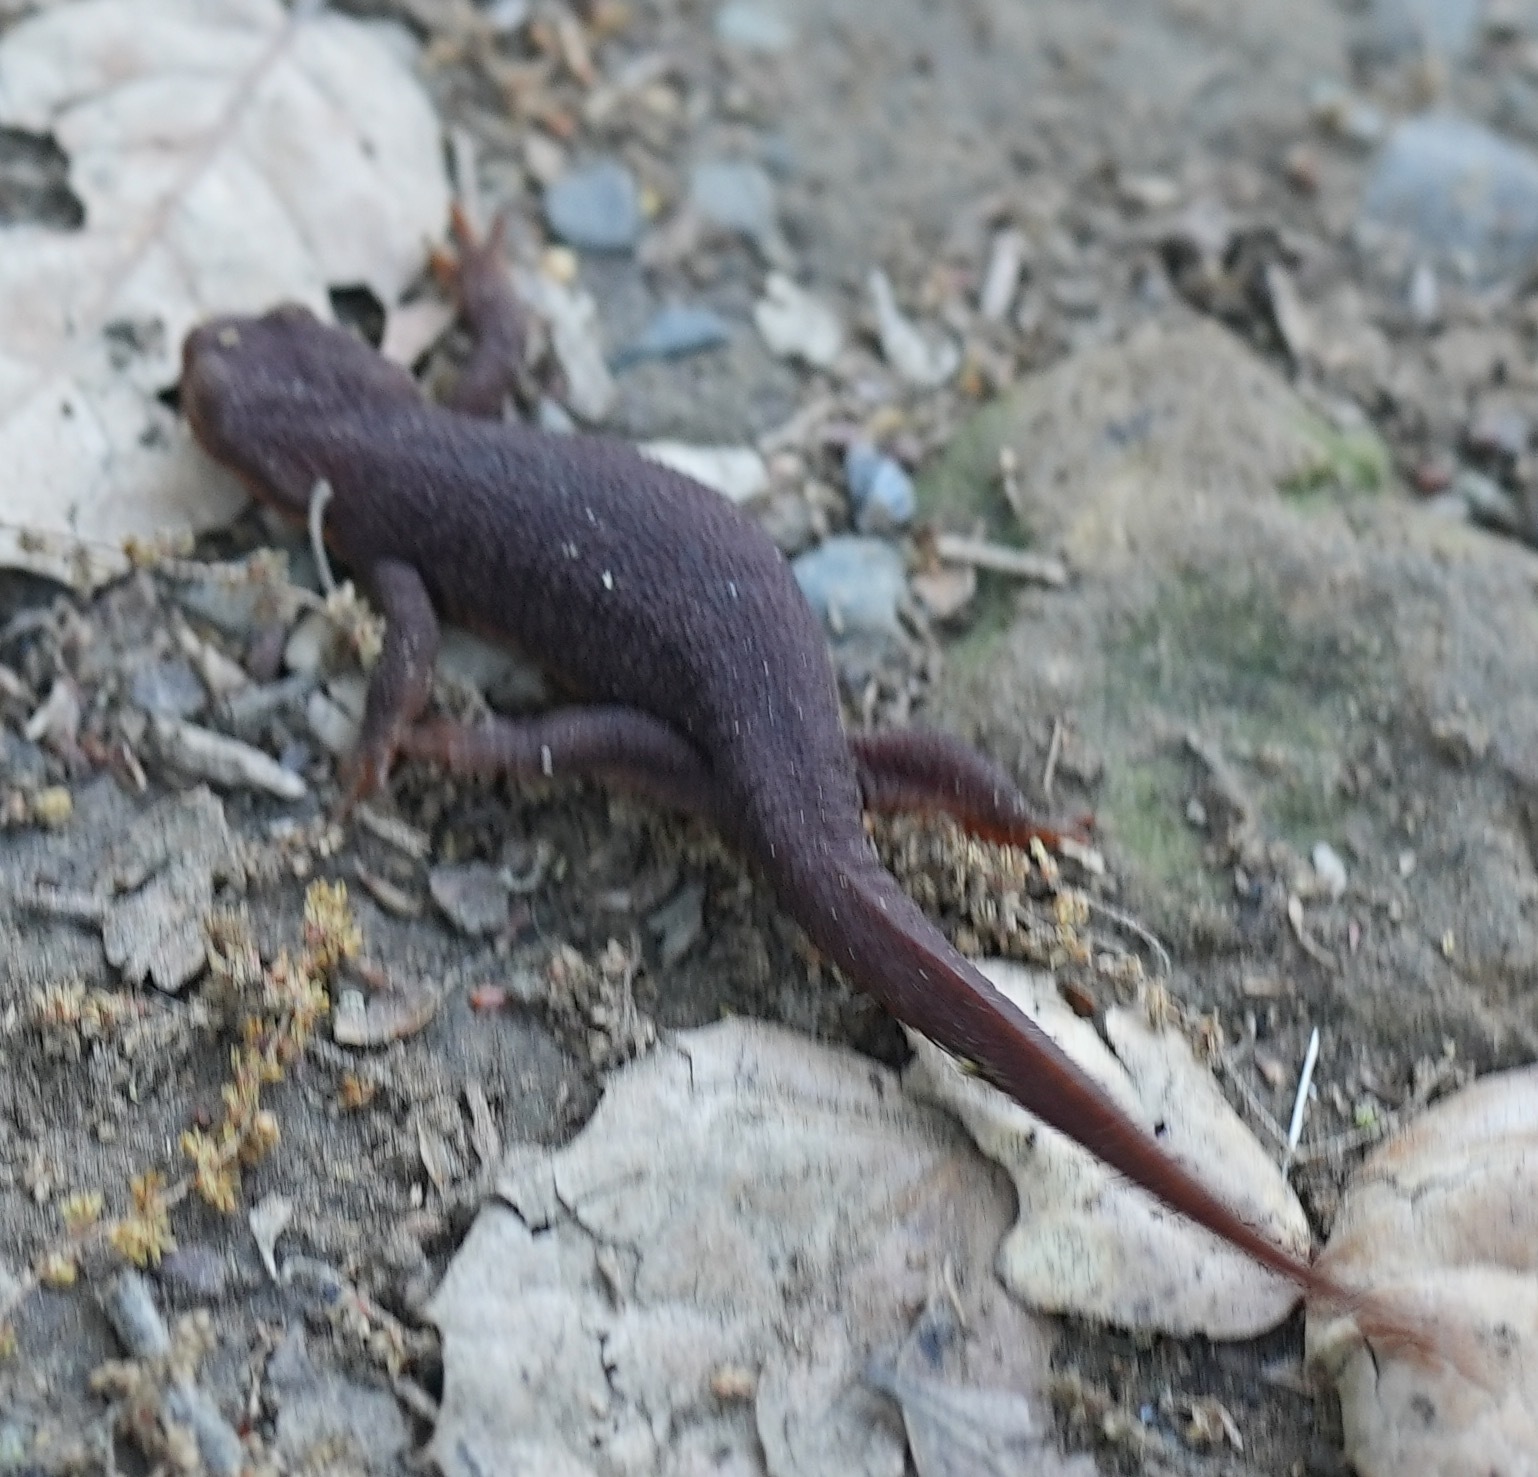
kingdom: Animalia
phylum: Chordata
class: Amphibia
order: Caudata
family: Salamandridae
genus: Taricha
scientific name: Taricha torosa
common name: California newt
